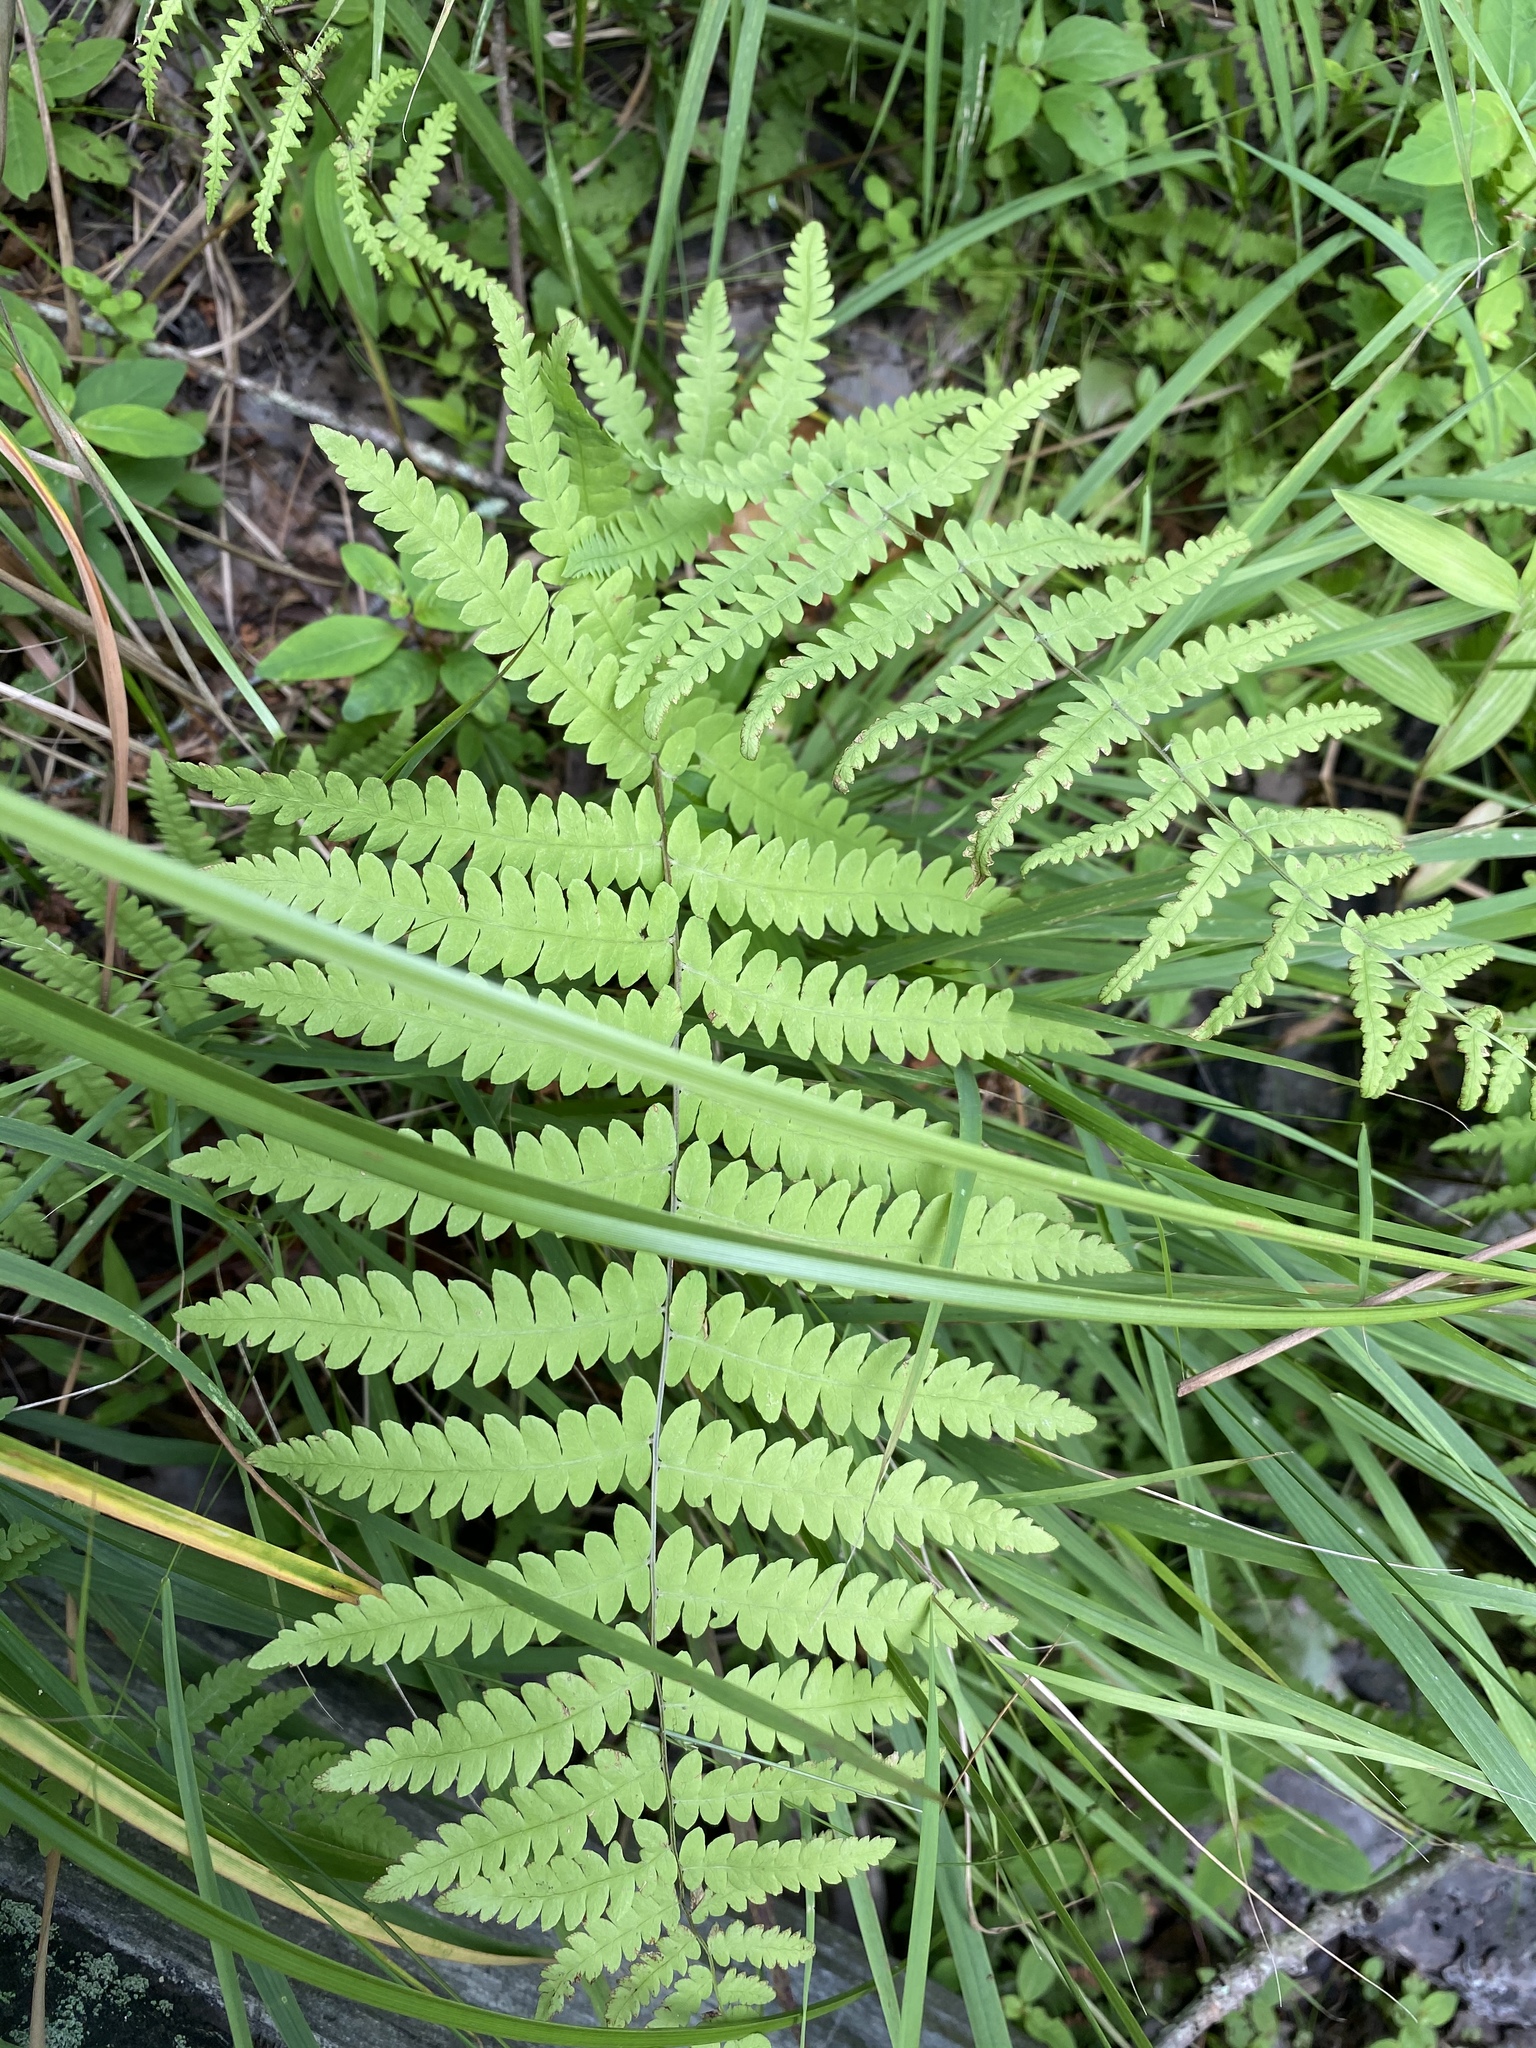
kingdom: Plantae
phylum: Tracheophyta
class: Polypodiopsida
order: Polypodiales
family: Thelypteridaceae
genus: Thelypteris
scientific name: Thelypteris palustris
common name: Marsh fern
